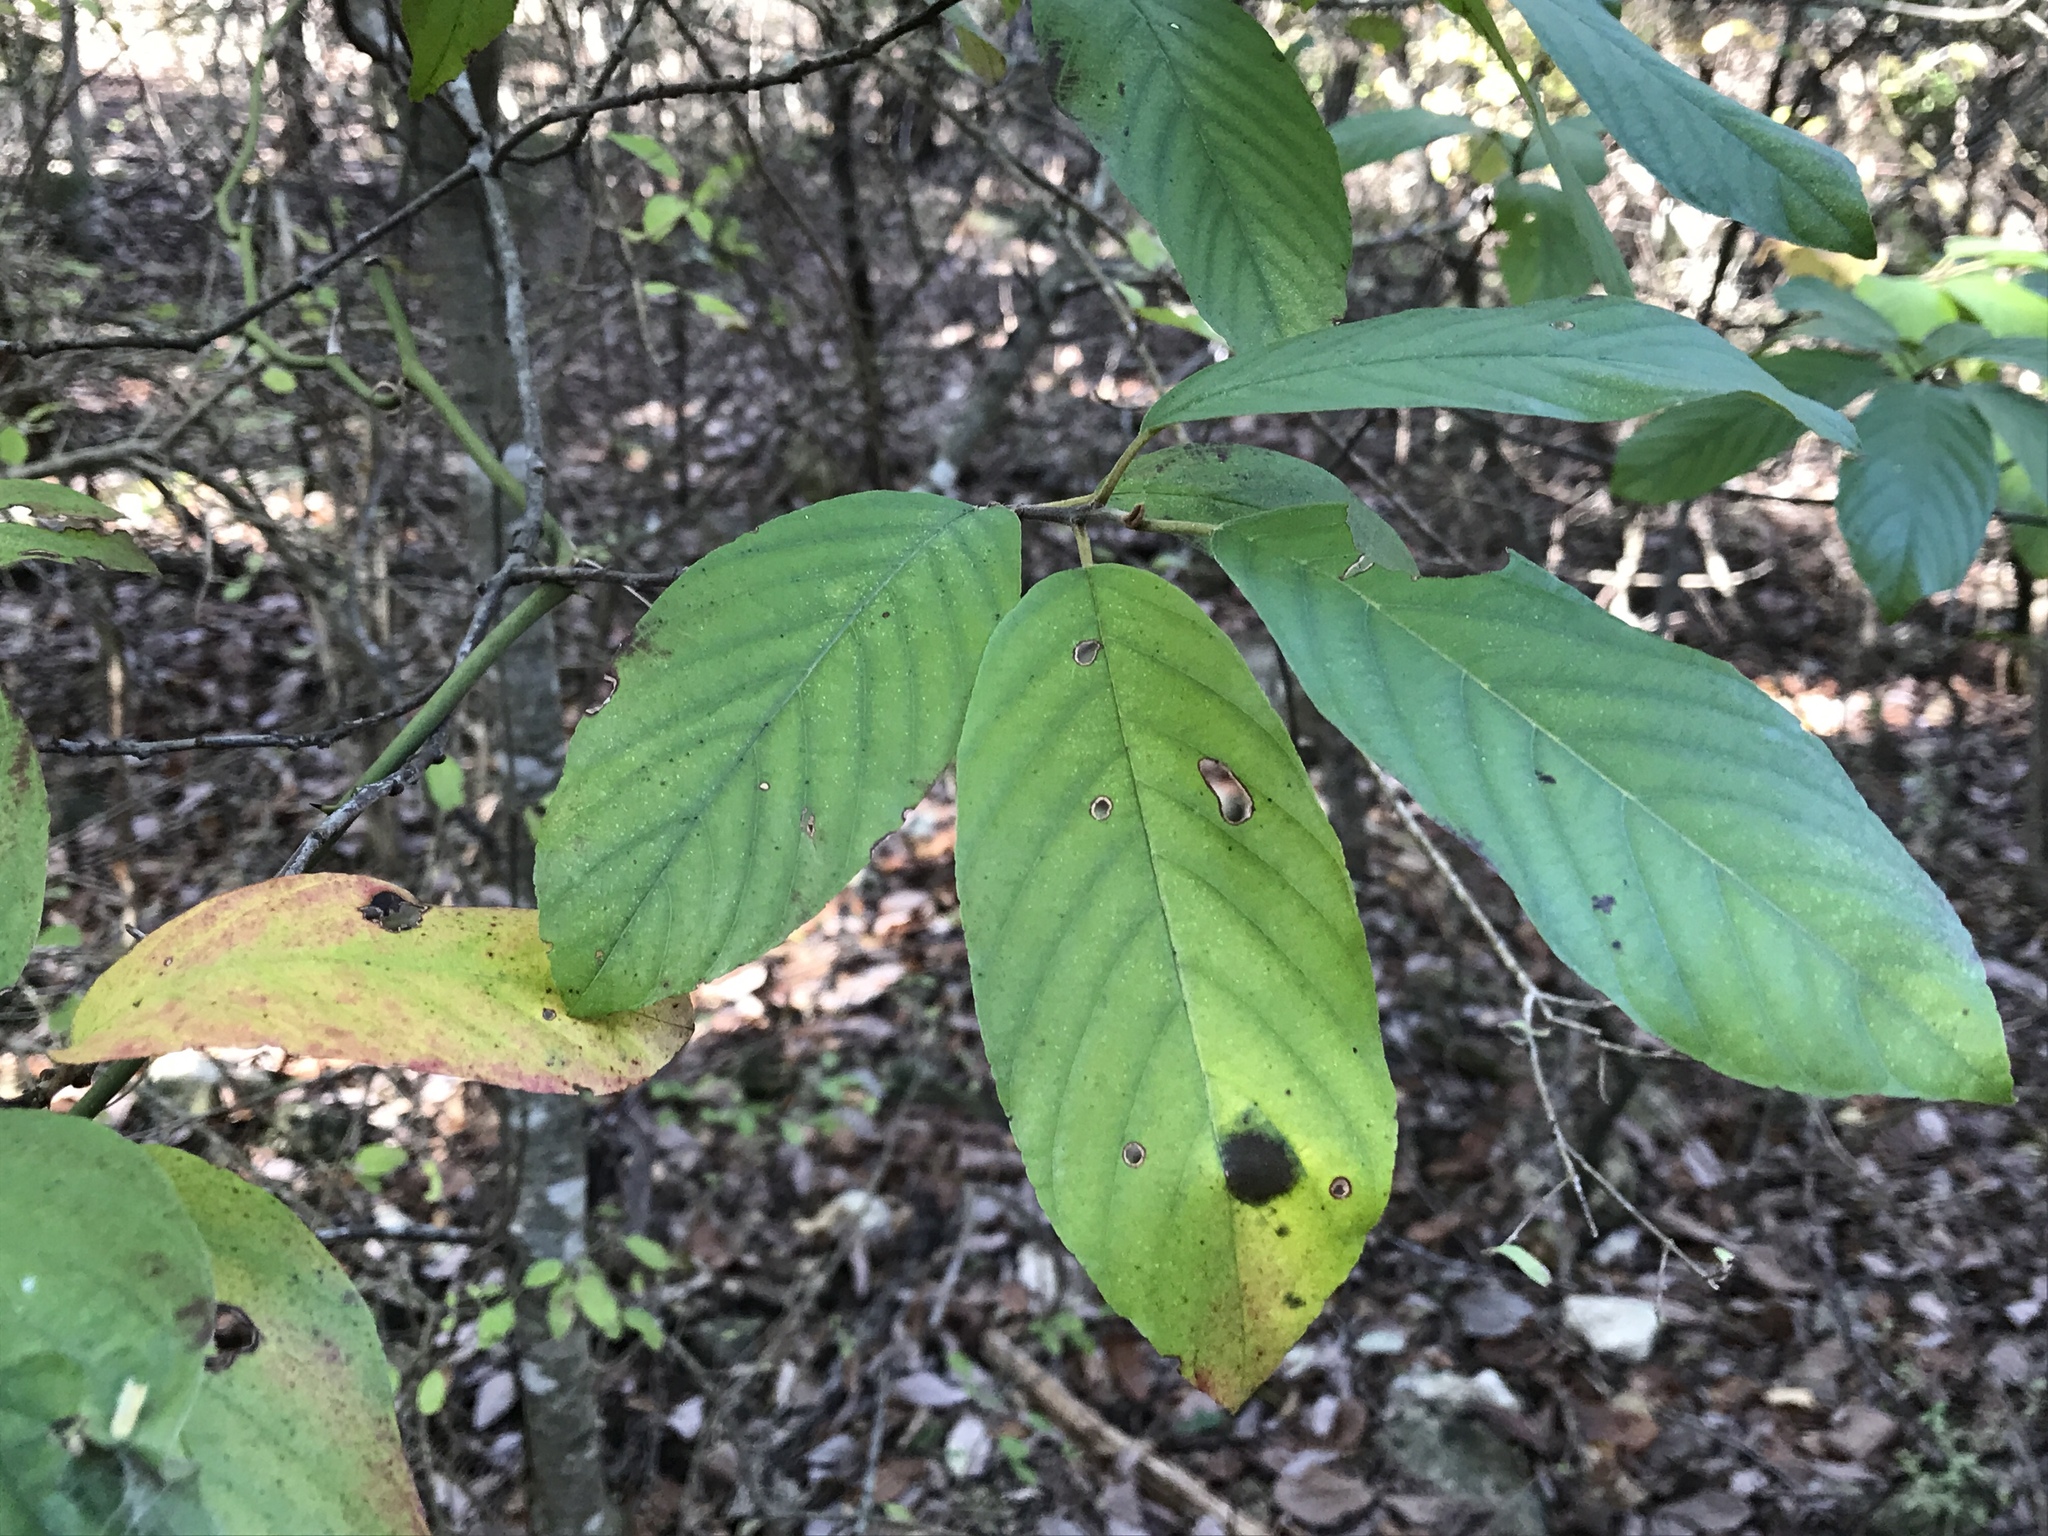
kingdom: Plantae
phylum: Tracheophyta
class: Magnoliopsida
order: Rosales
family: Rhamnaceae
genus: Frangula
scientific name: Frangula caroliniana
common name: Carolina buckthorn
